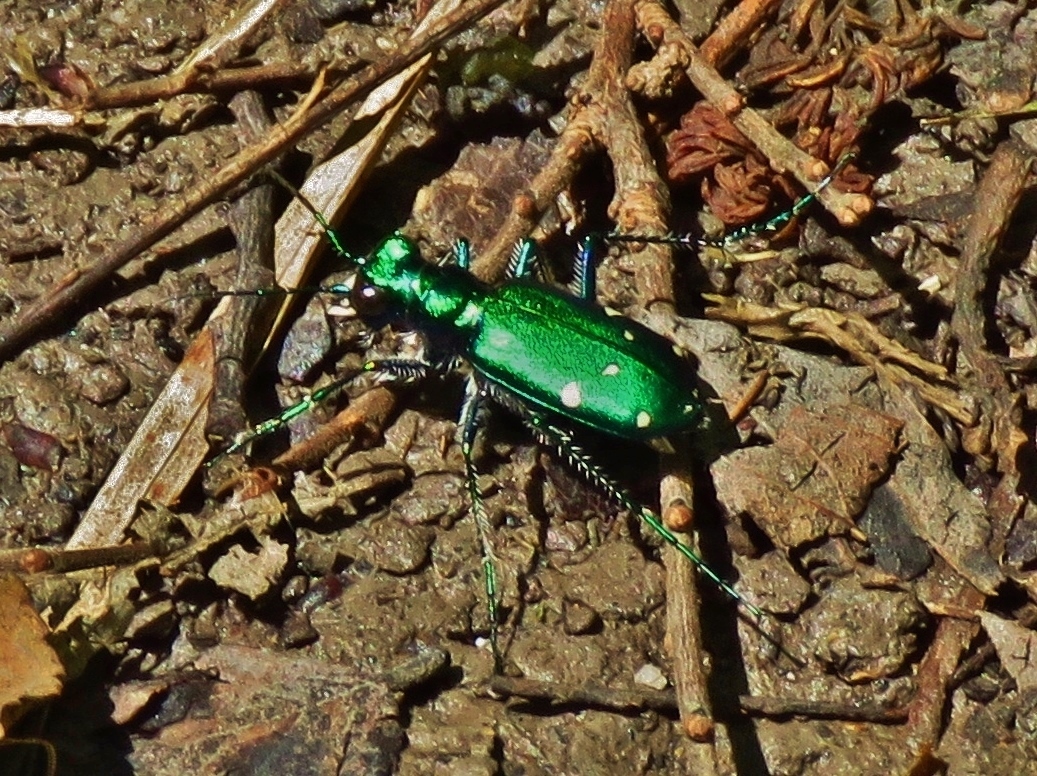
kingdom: Animalia
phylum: Arthropoda
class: Insecta
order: Coleoptera
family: Carabidae
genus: Cicindela
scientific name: Cicindela sexguttata
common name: Six-spotted tiger beetle
